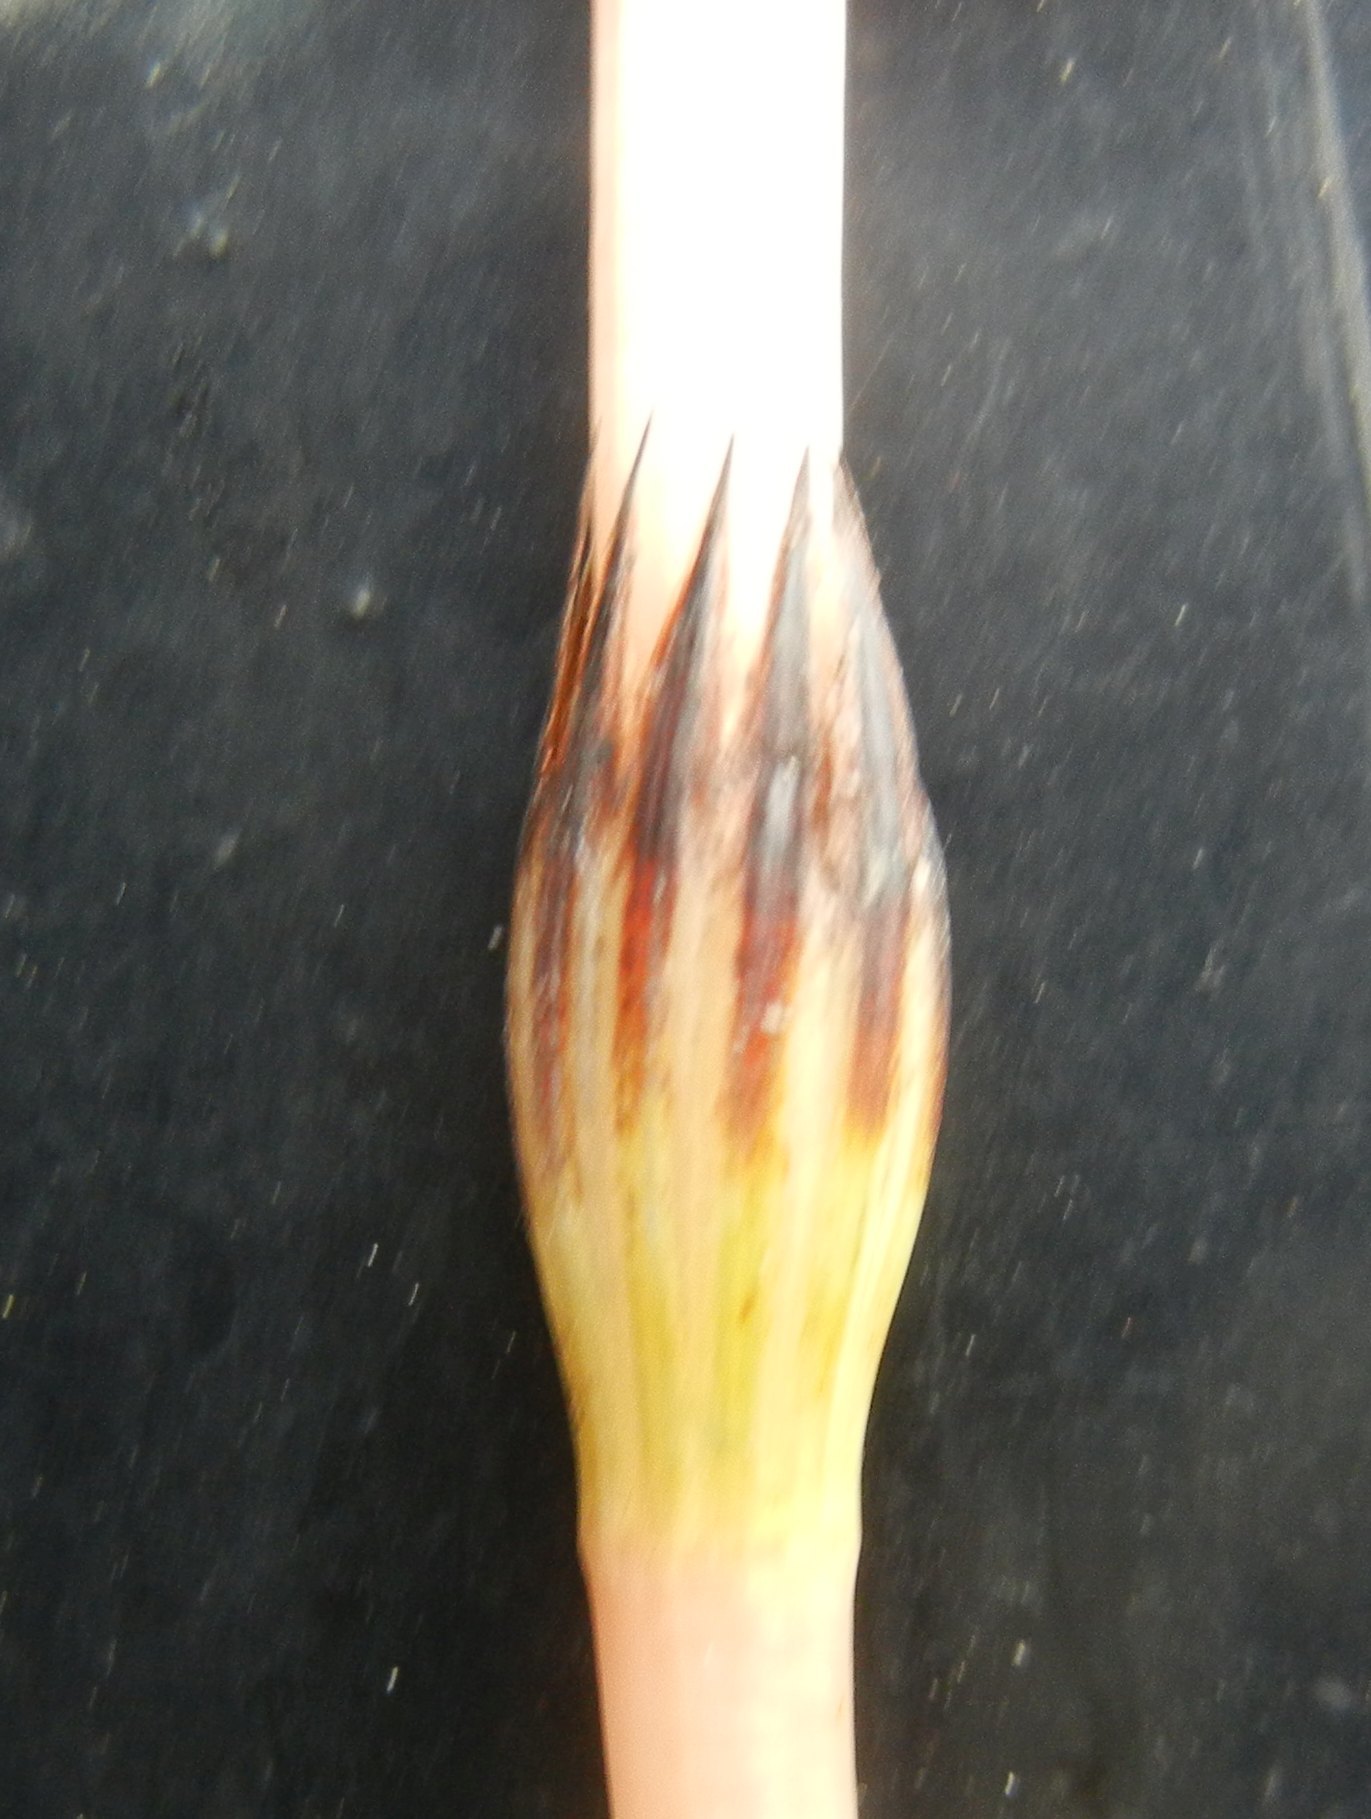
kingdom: Plantae
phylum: Tracheophyta
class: Polypodiopsida
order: Equisetales
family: Equisetaceae
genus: Equisetum
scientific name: Equisetum arvense
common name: Field horsetail
